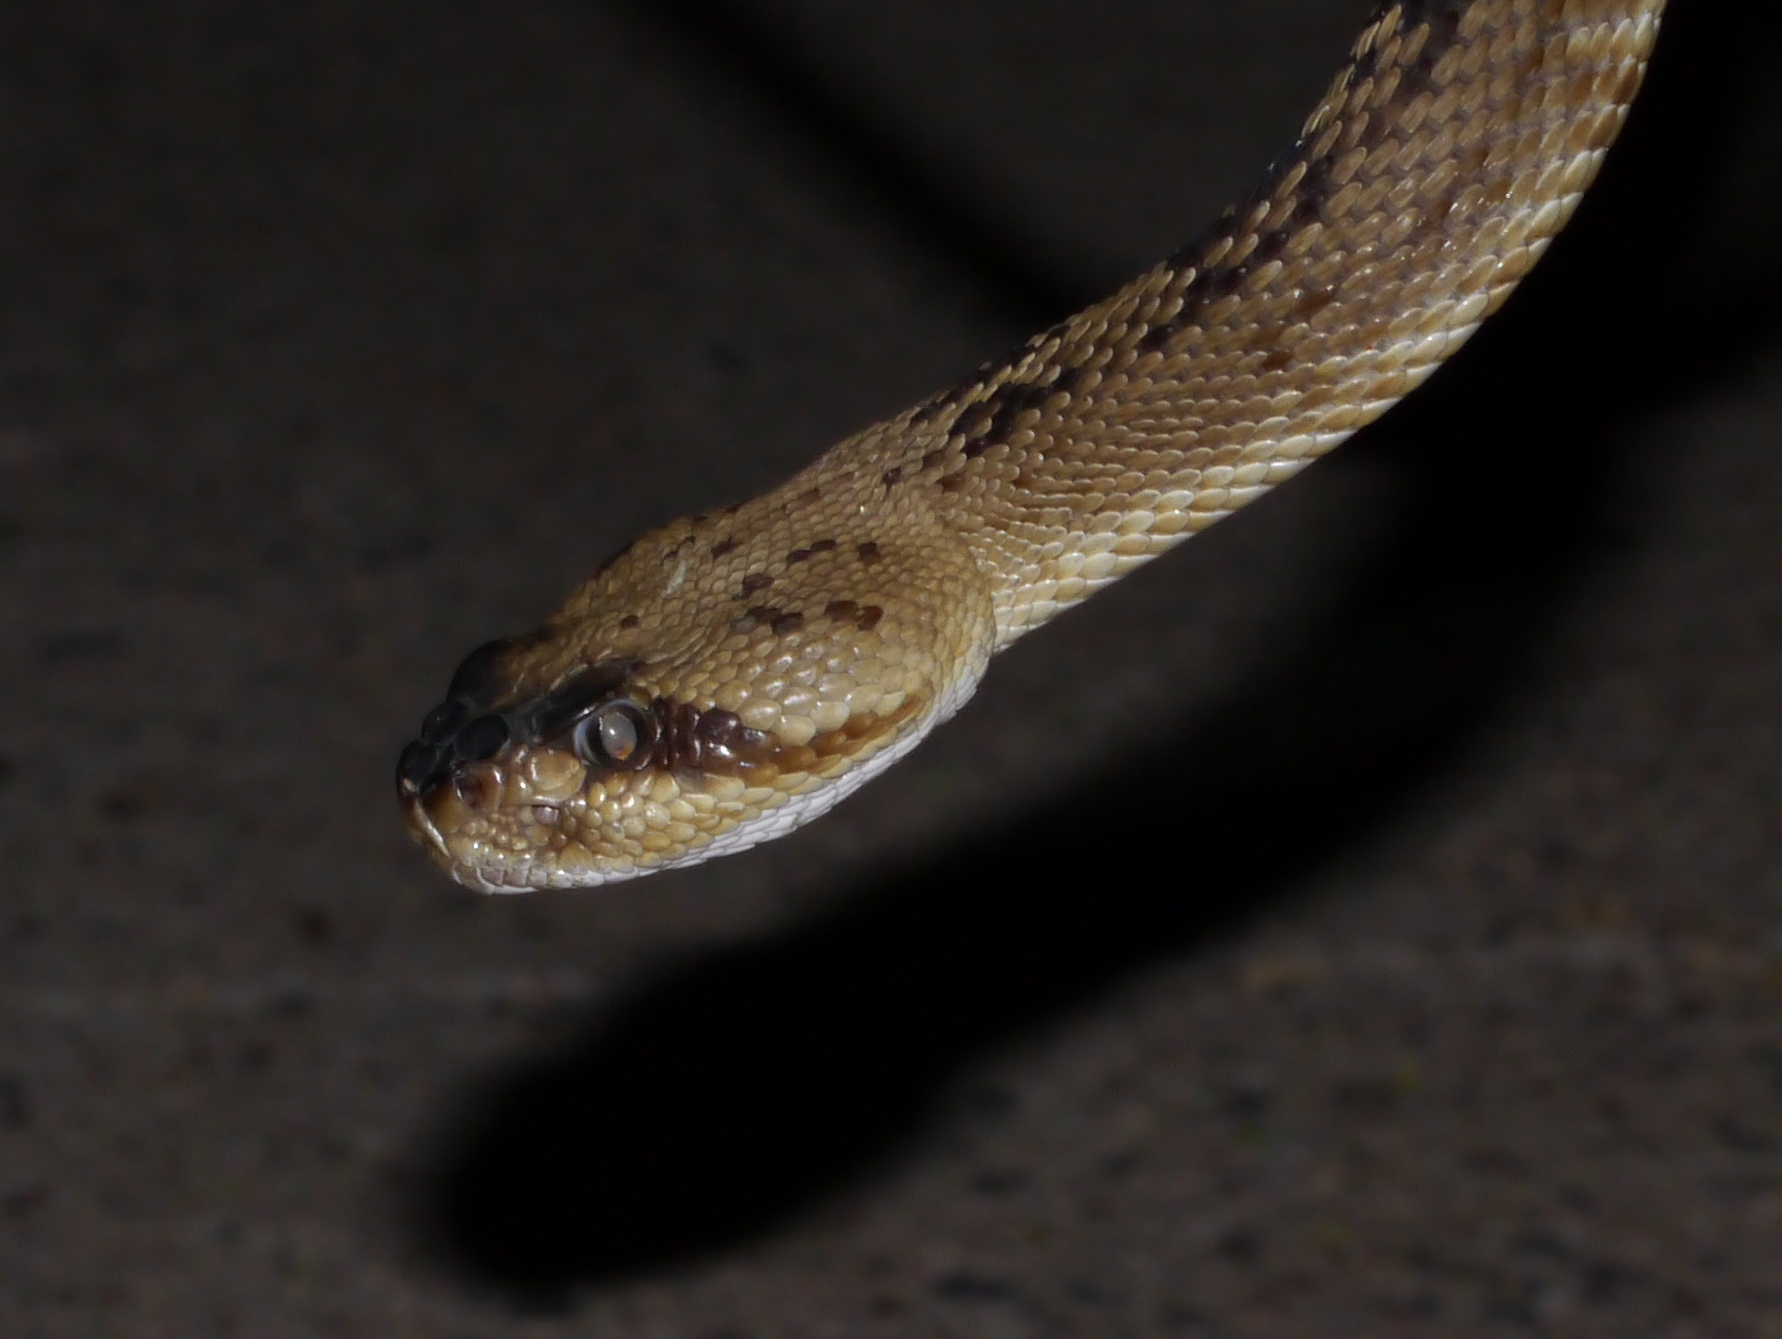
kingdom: Animalia
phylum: Chordata
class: Squamata
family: Viperidae
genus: Crotalus
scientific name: Crotalus molossus
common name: Black tailed rattlesnake
